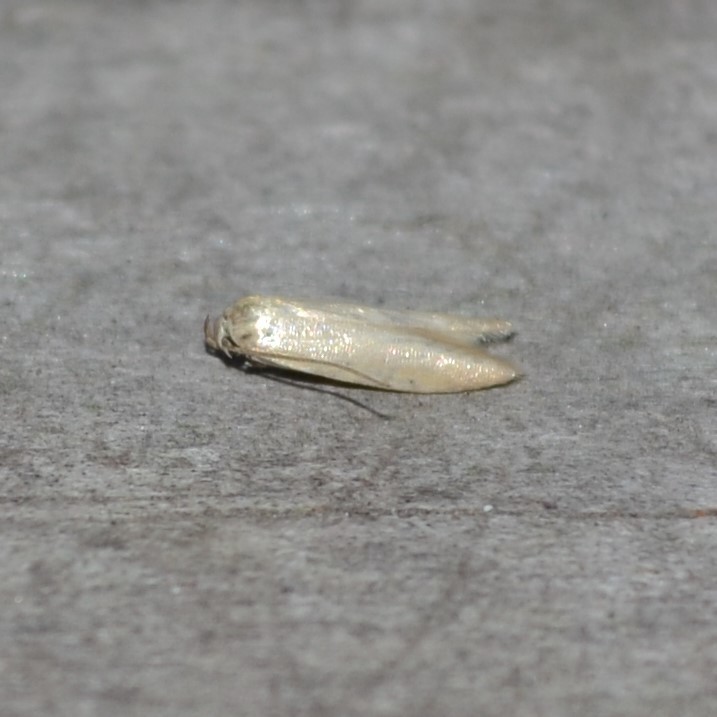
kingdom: Animalia
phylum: Arthropoda
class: Insecta
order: Lepidoptera
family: Blastobasidae
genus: Holcocerina
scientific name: Holcocerina immaculella
